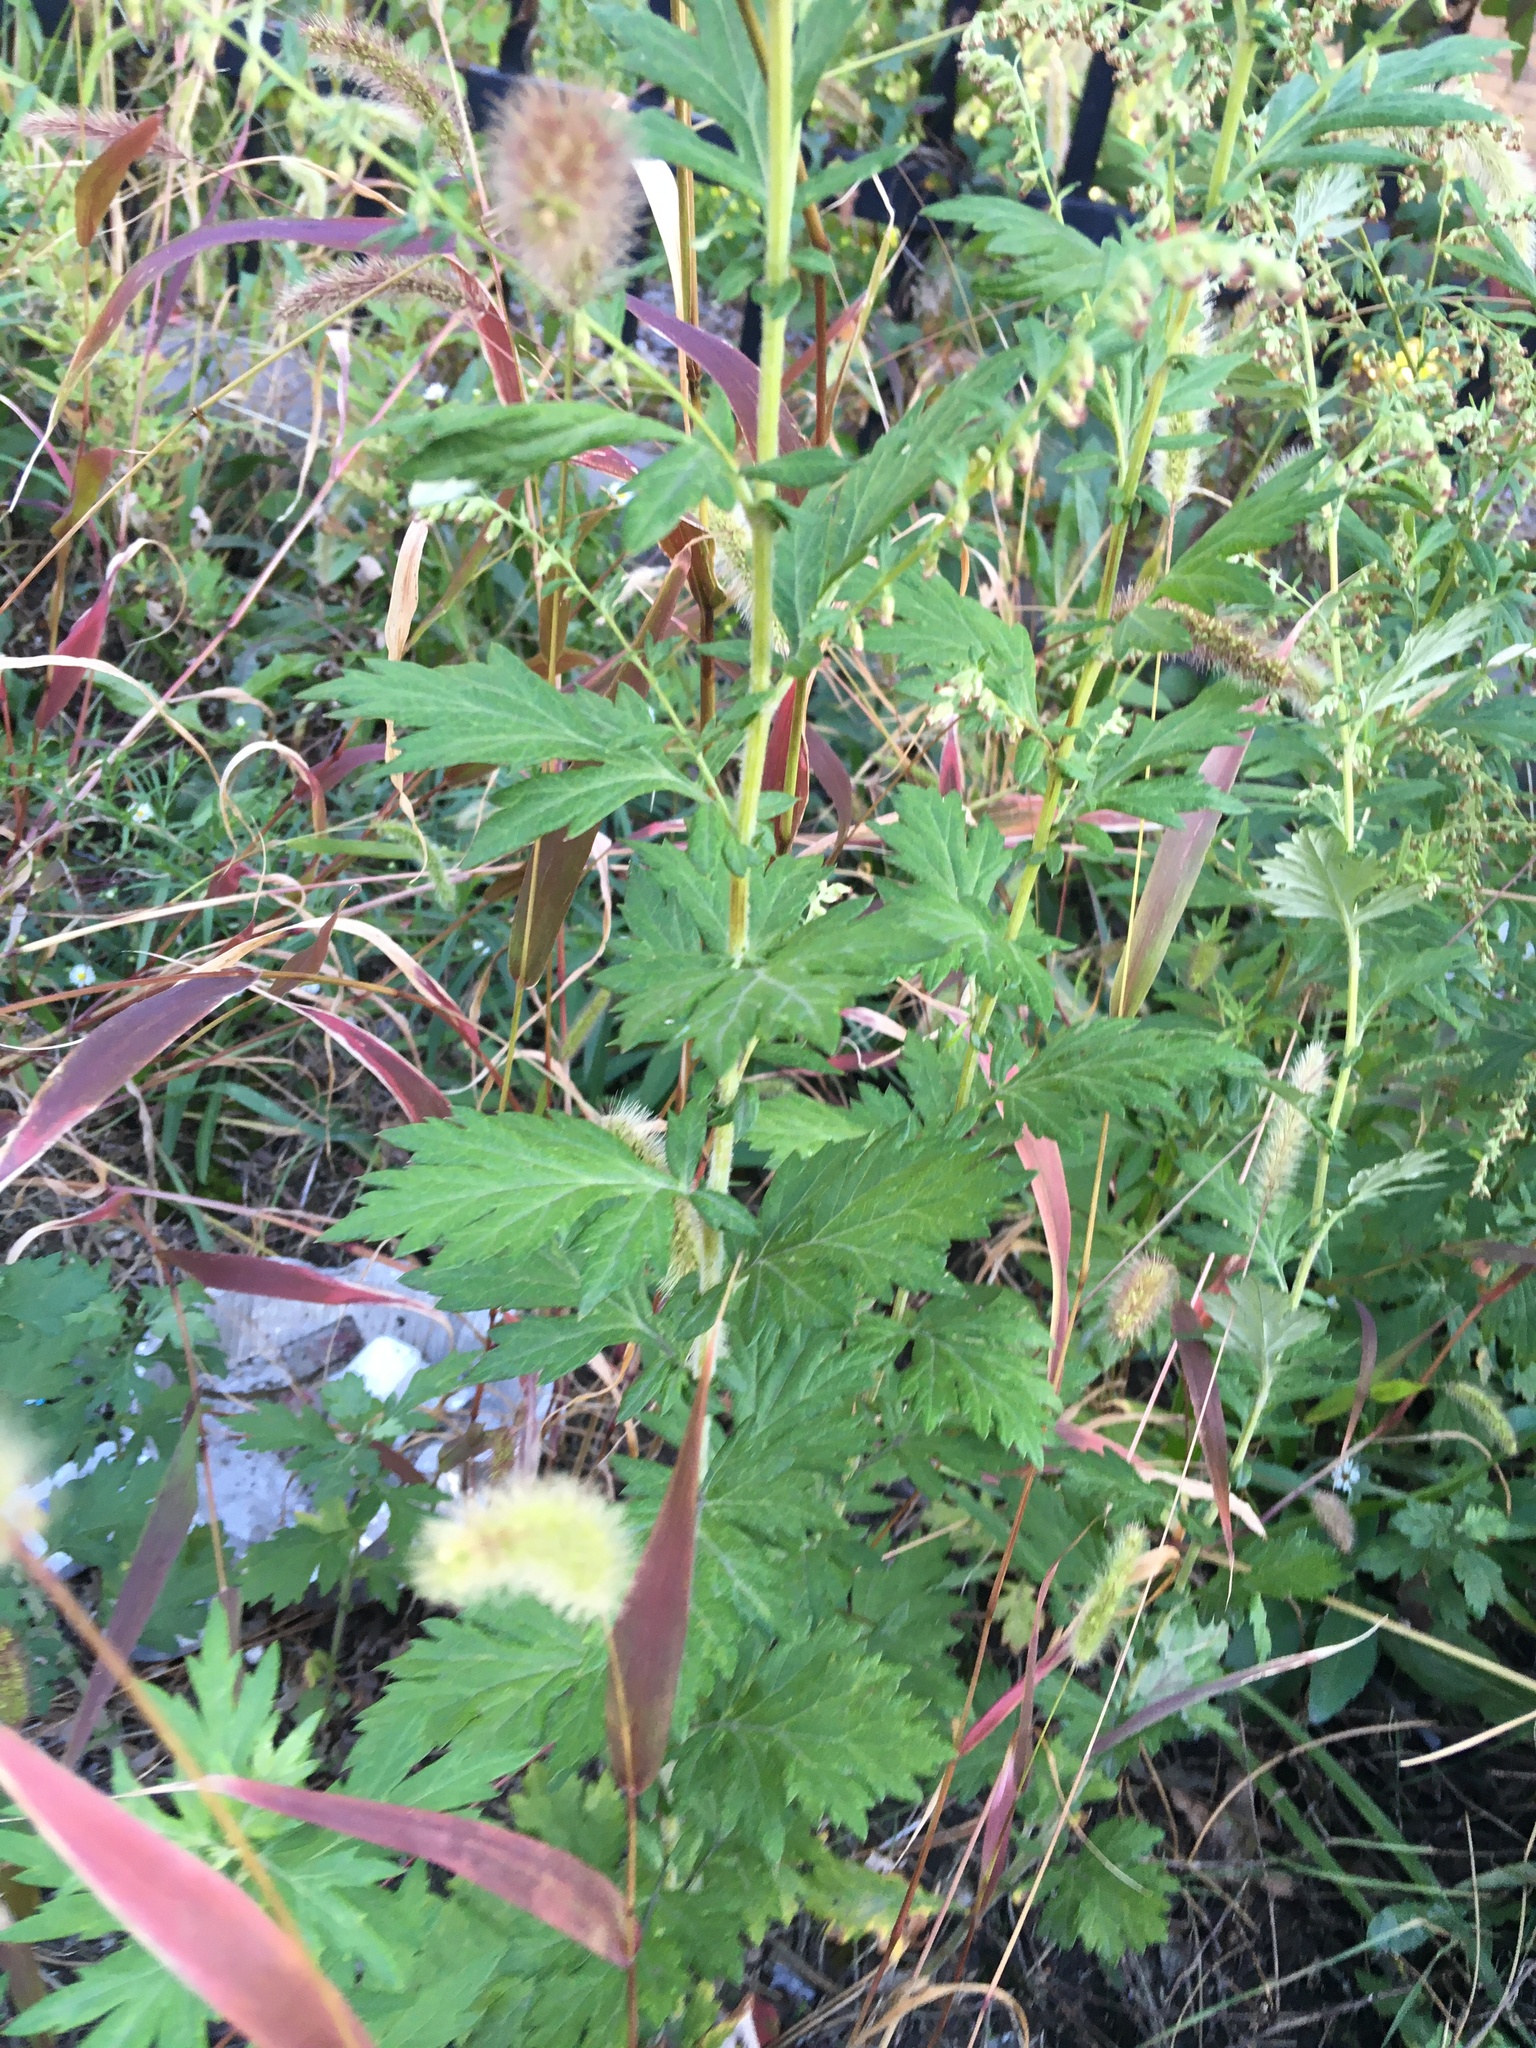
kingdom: Plantae
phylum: Tracheophyta
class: Magnoliopsida
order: Asterales
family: Asteraceae
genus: Artemisia
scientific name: Artemisia vulgaris
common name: Mugwort
